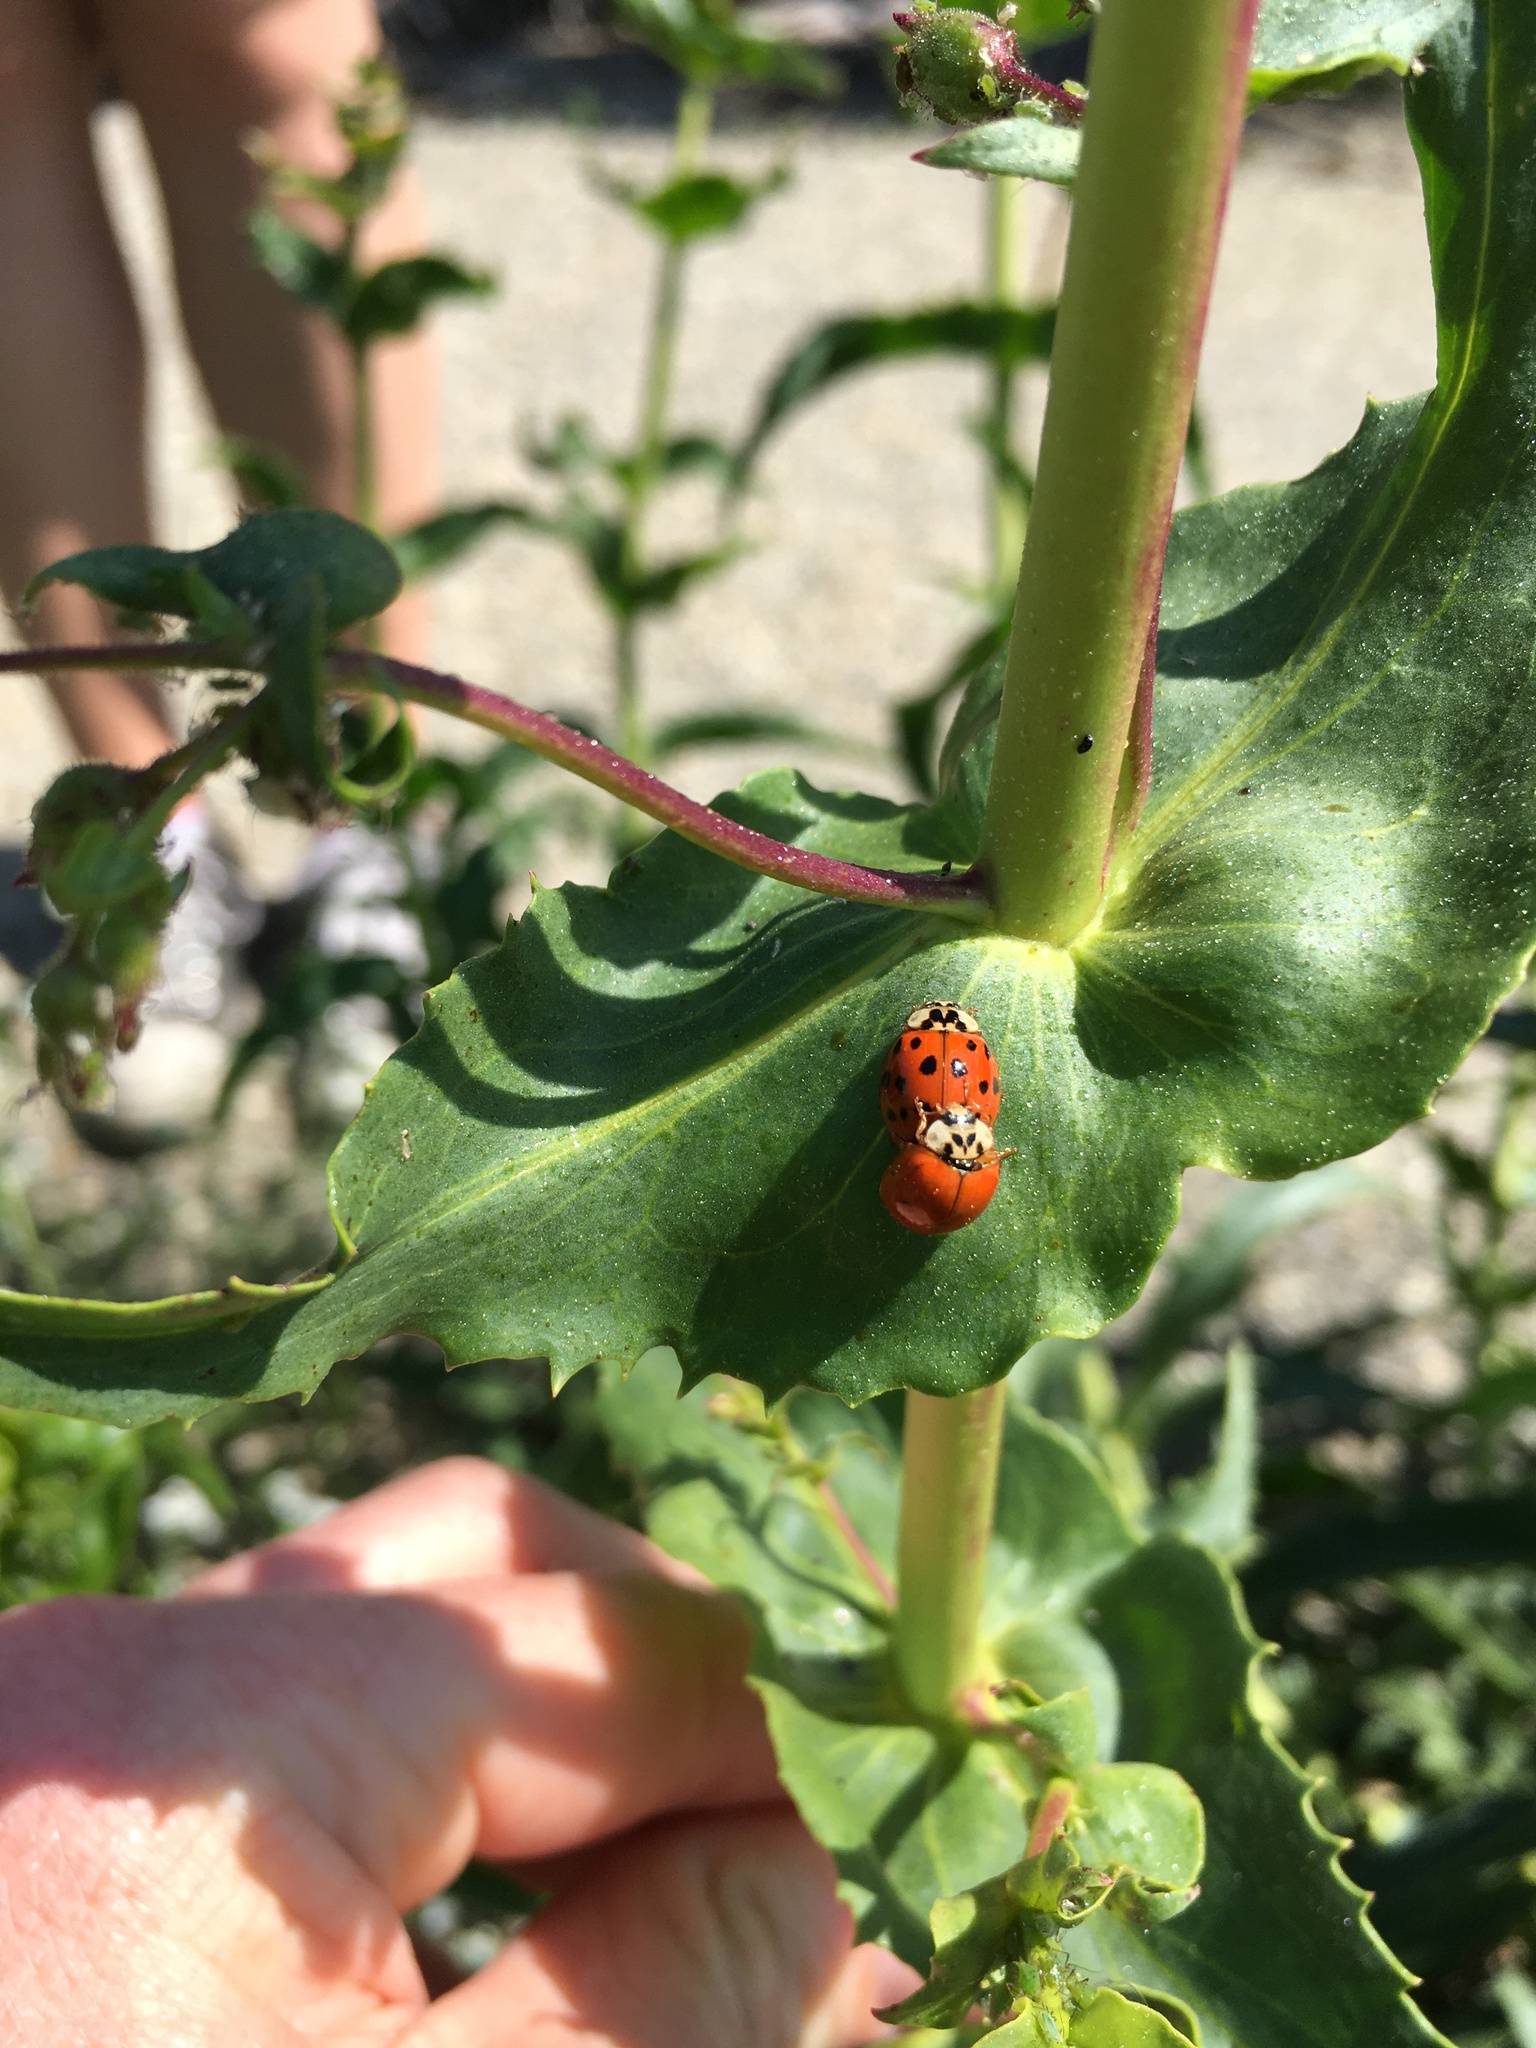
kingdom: Animalia
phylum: Arthropoda
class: Insecta
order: Coleoptera
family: Coccinellidae
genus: Harmonia
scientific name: Harmonia axyridis
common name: Harlequin ladybird
